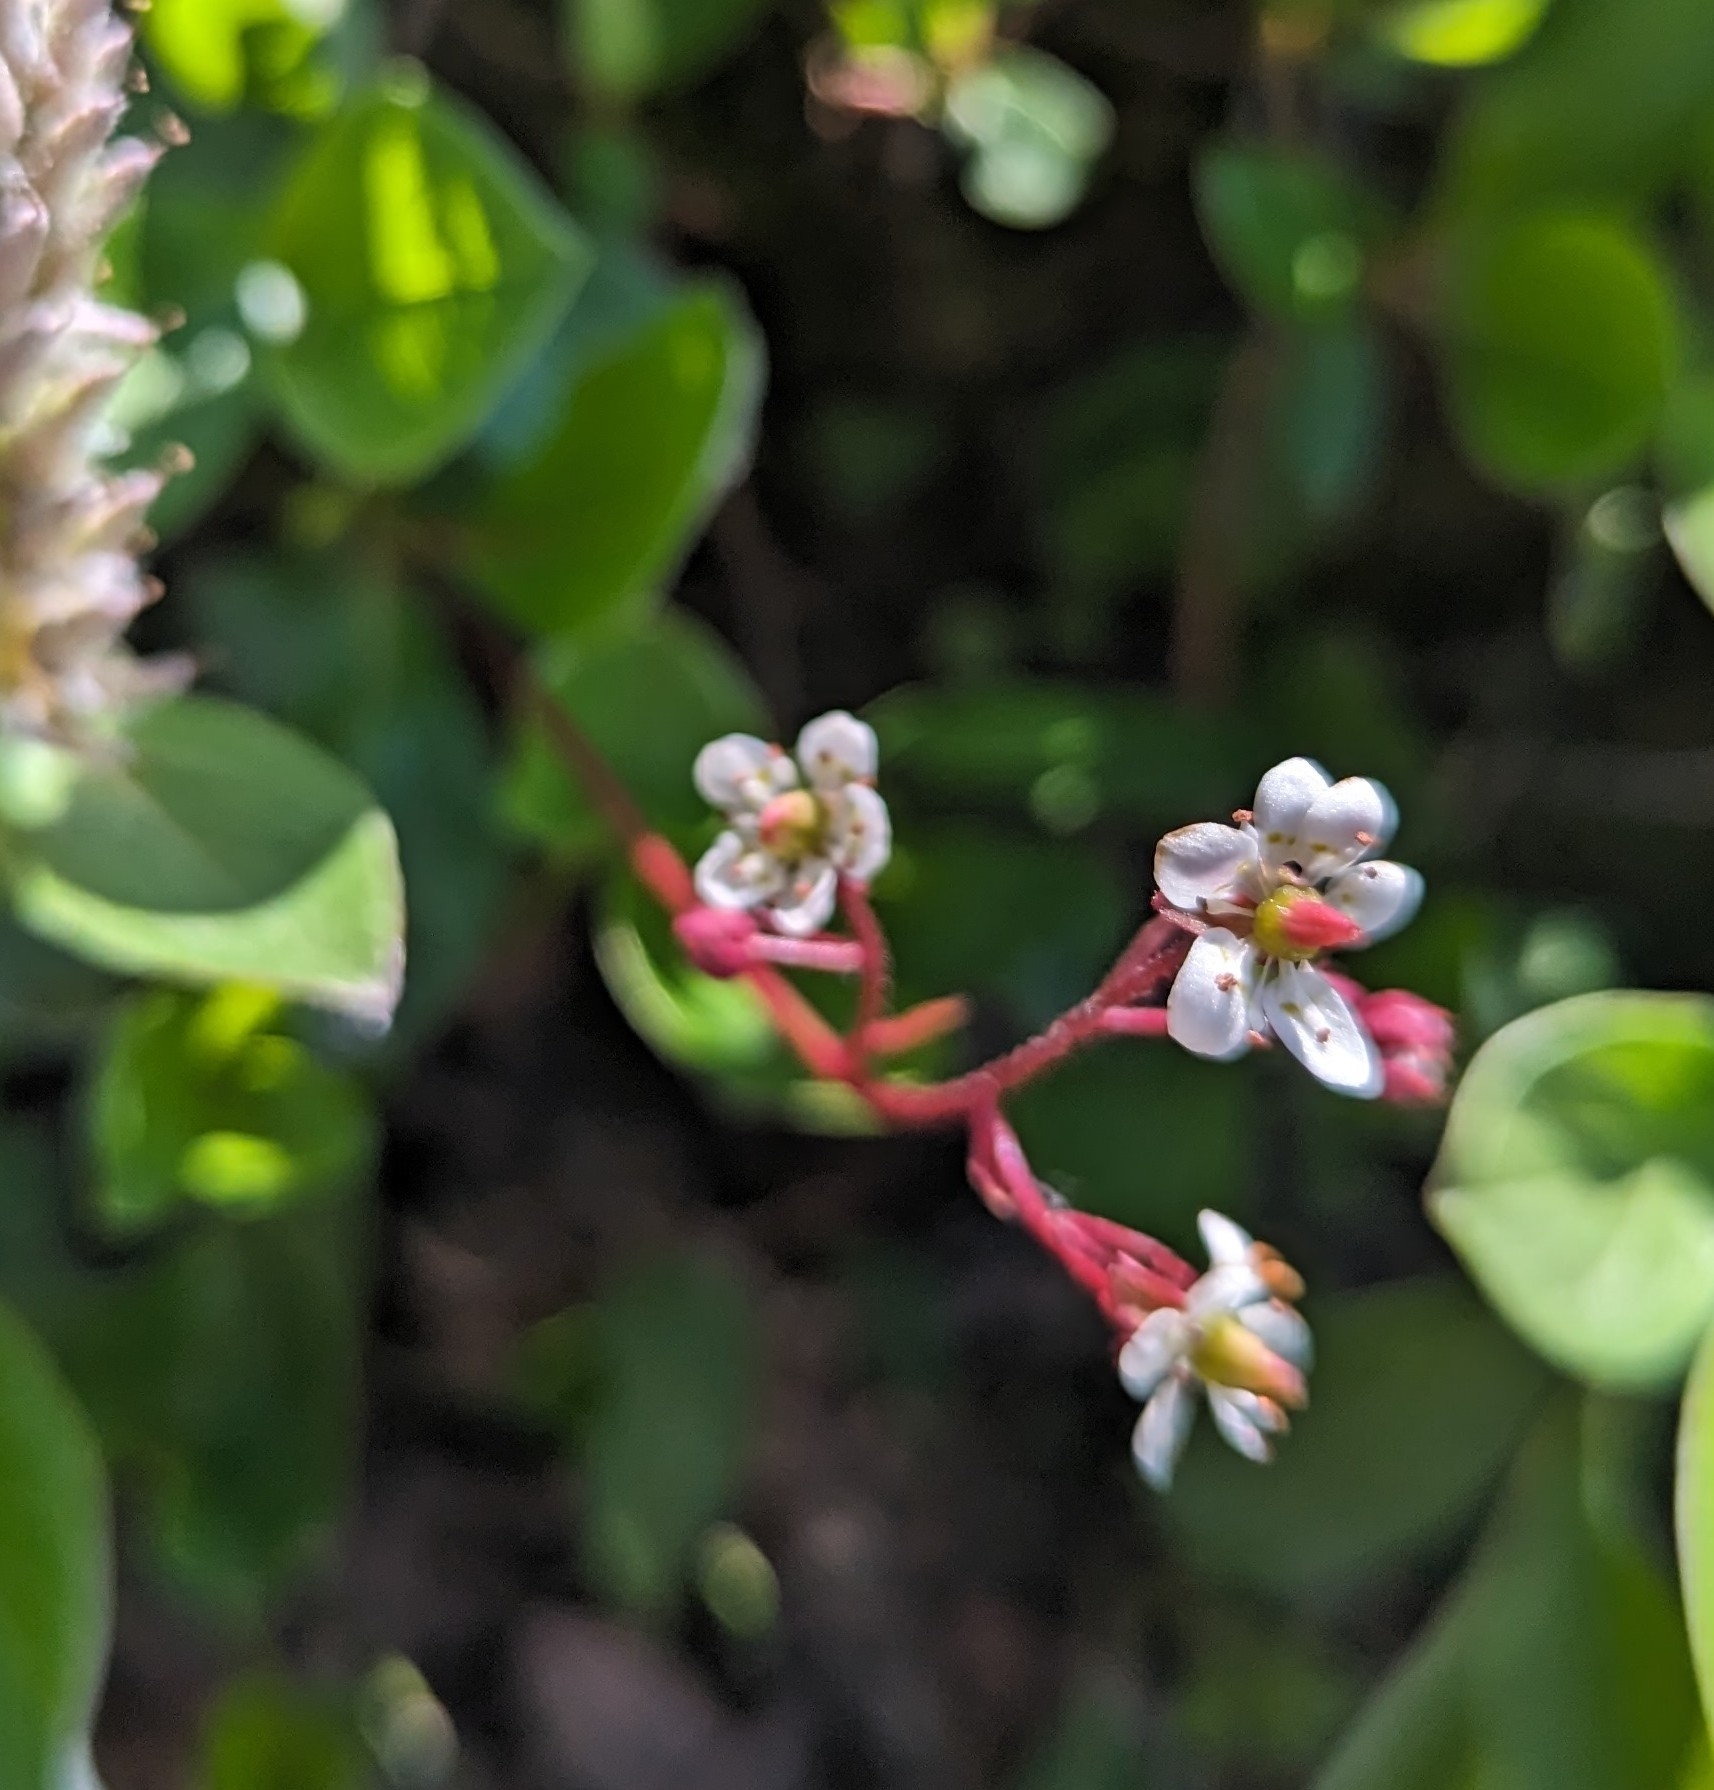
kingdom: Plantae
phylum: Tracheophyta
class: Magnoliopsida
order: Saxifragales
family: Saxifragaceae
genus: Micranthes
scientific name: Micranthes lyallii
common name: Lyall's saxifrage
